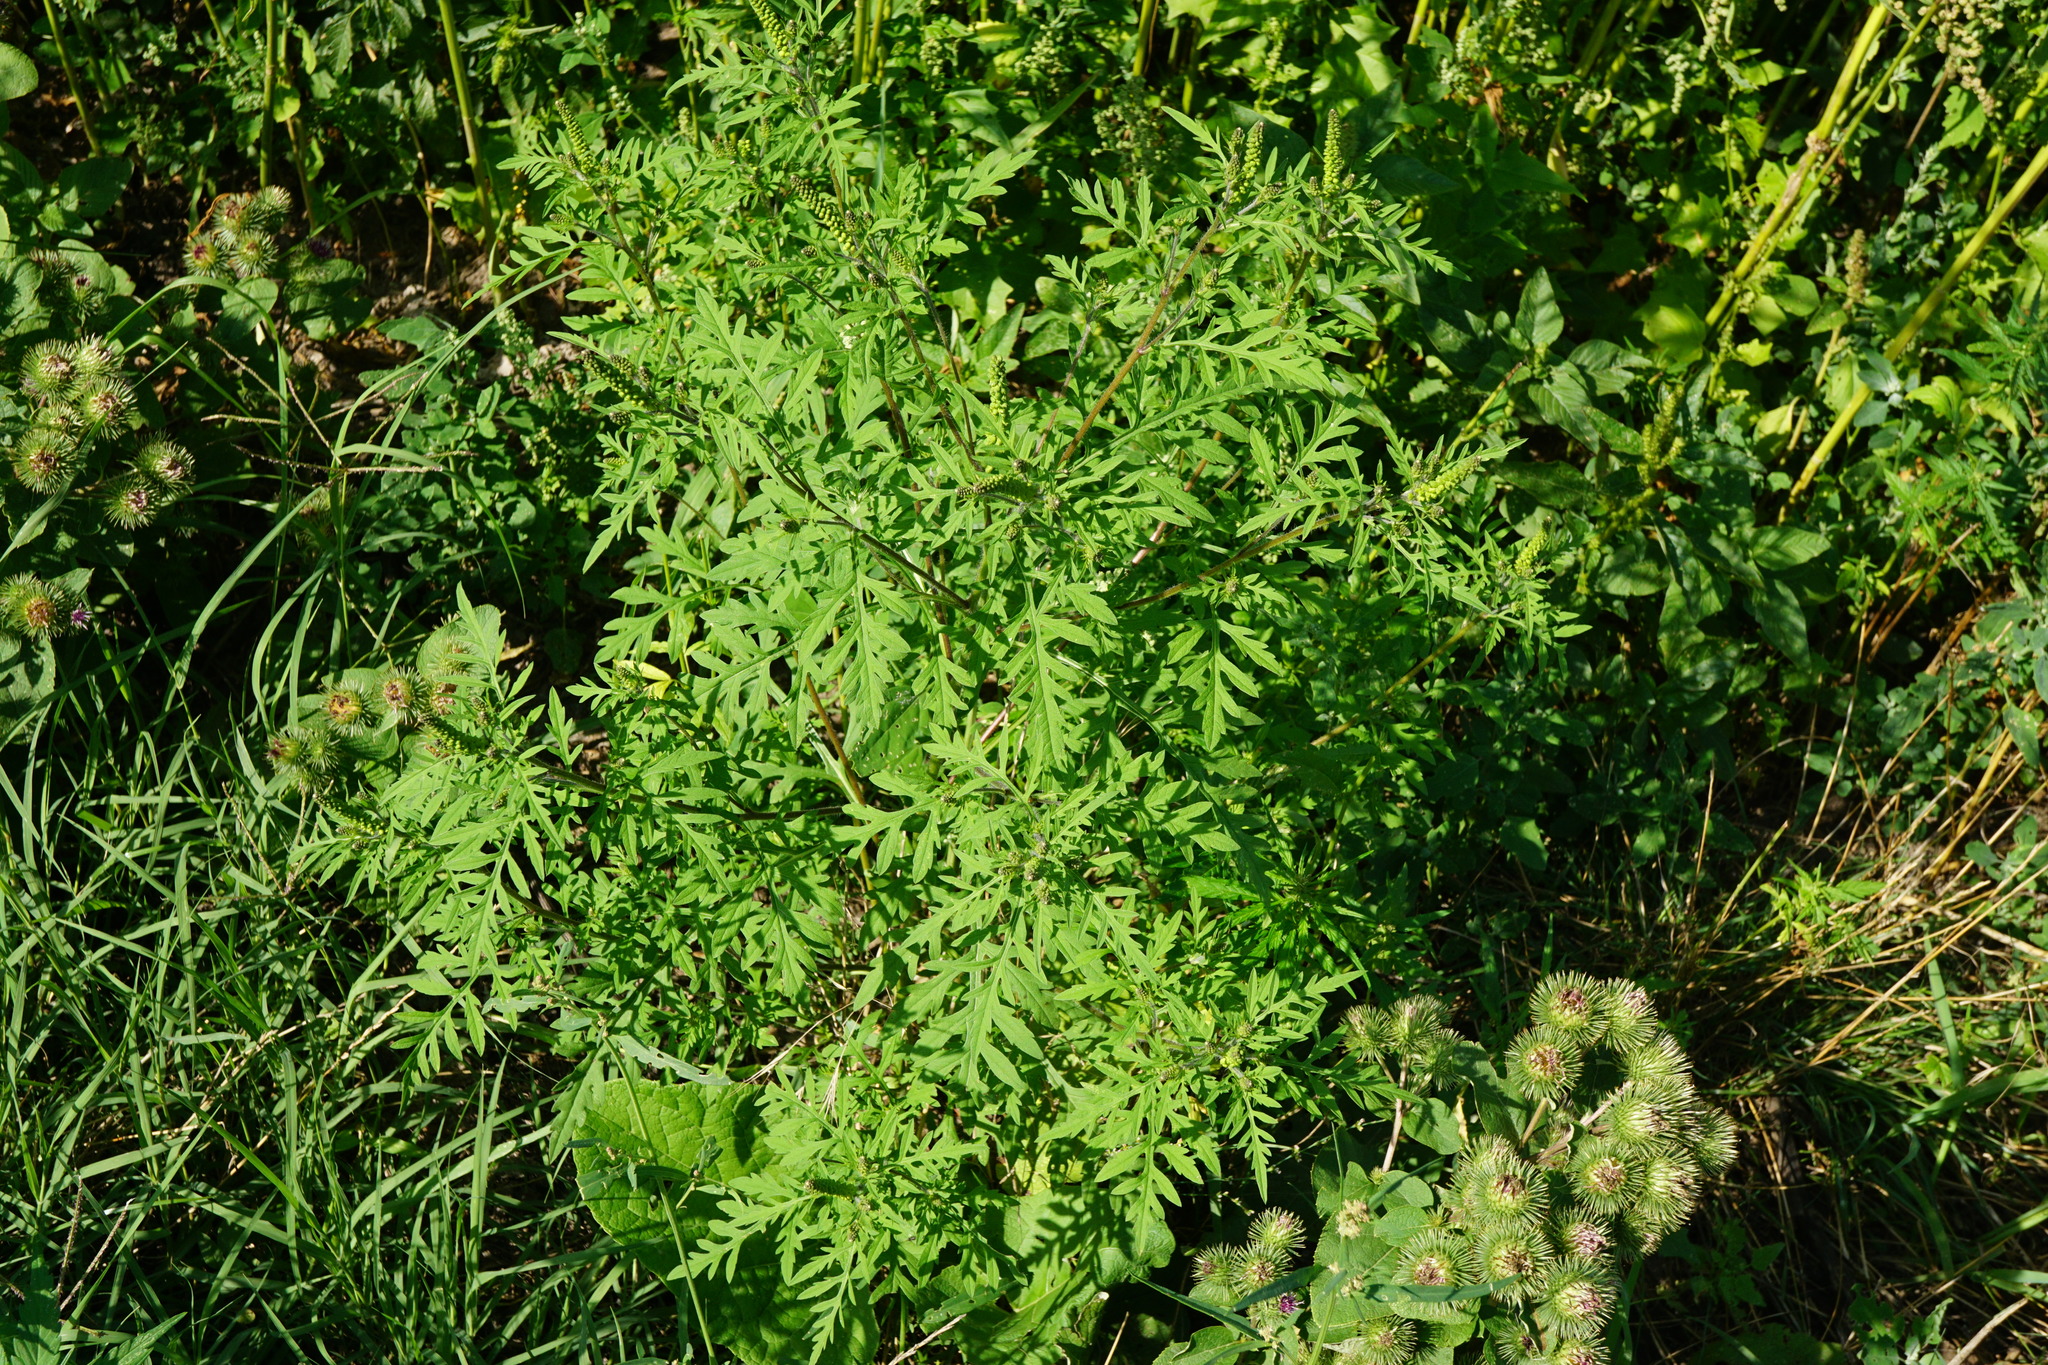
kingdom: Plantae
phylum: Tracheophyta
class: Magnoliopsida
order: Asterales
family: Asteraceae
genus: Ambrosia
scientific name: Ambrosia artemisiifolia
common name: Annual ragweed
